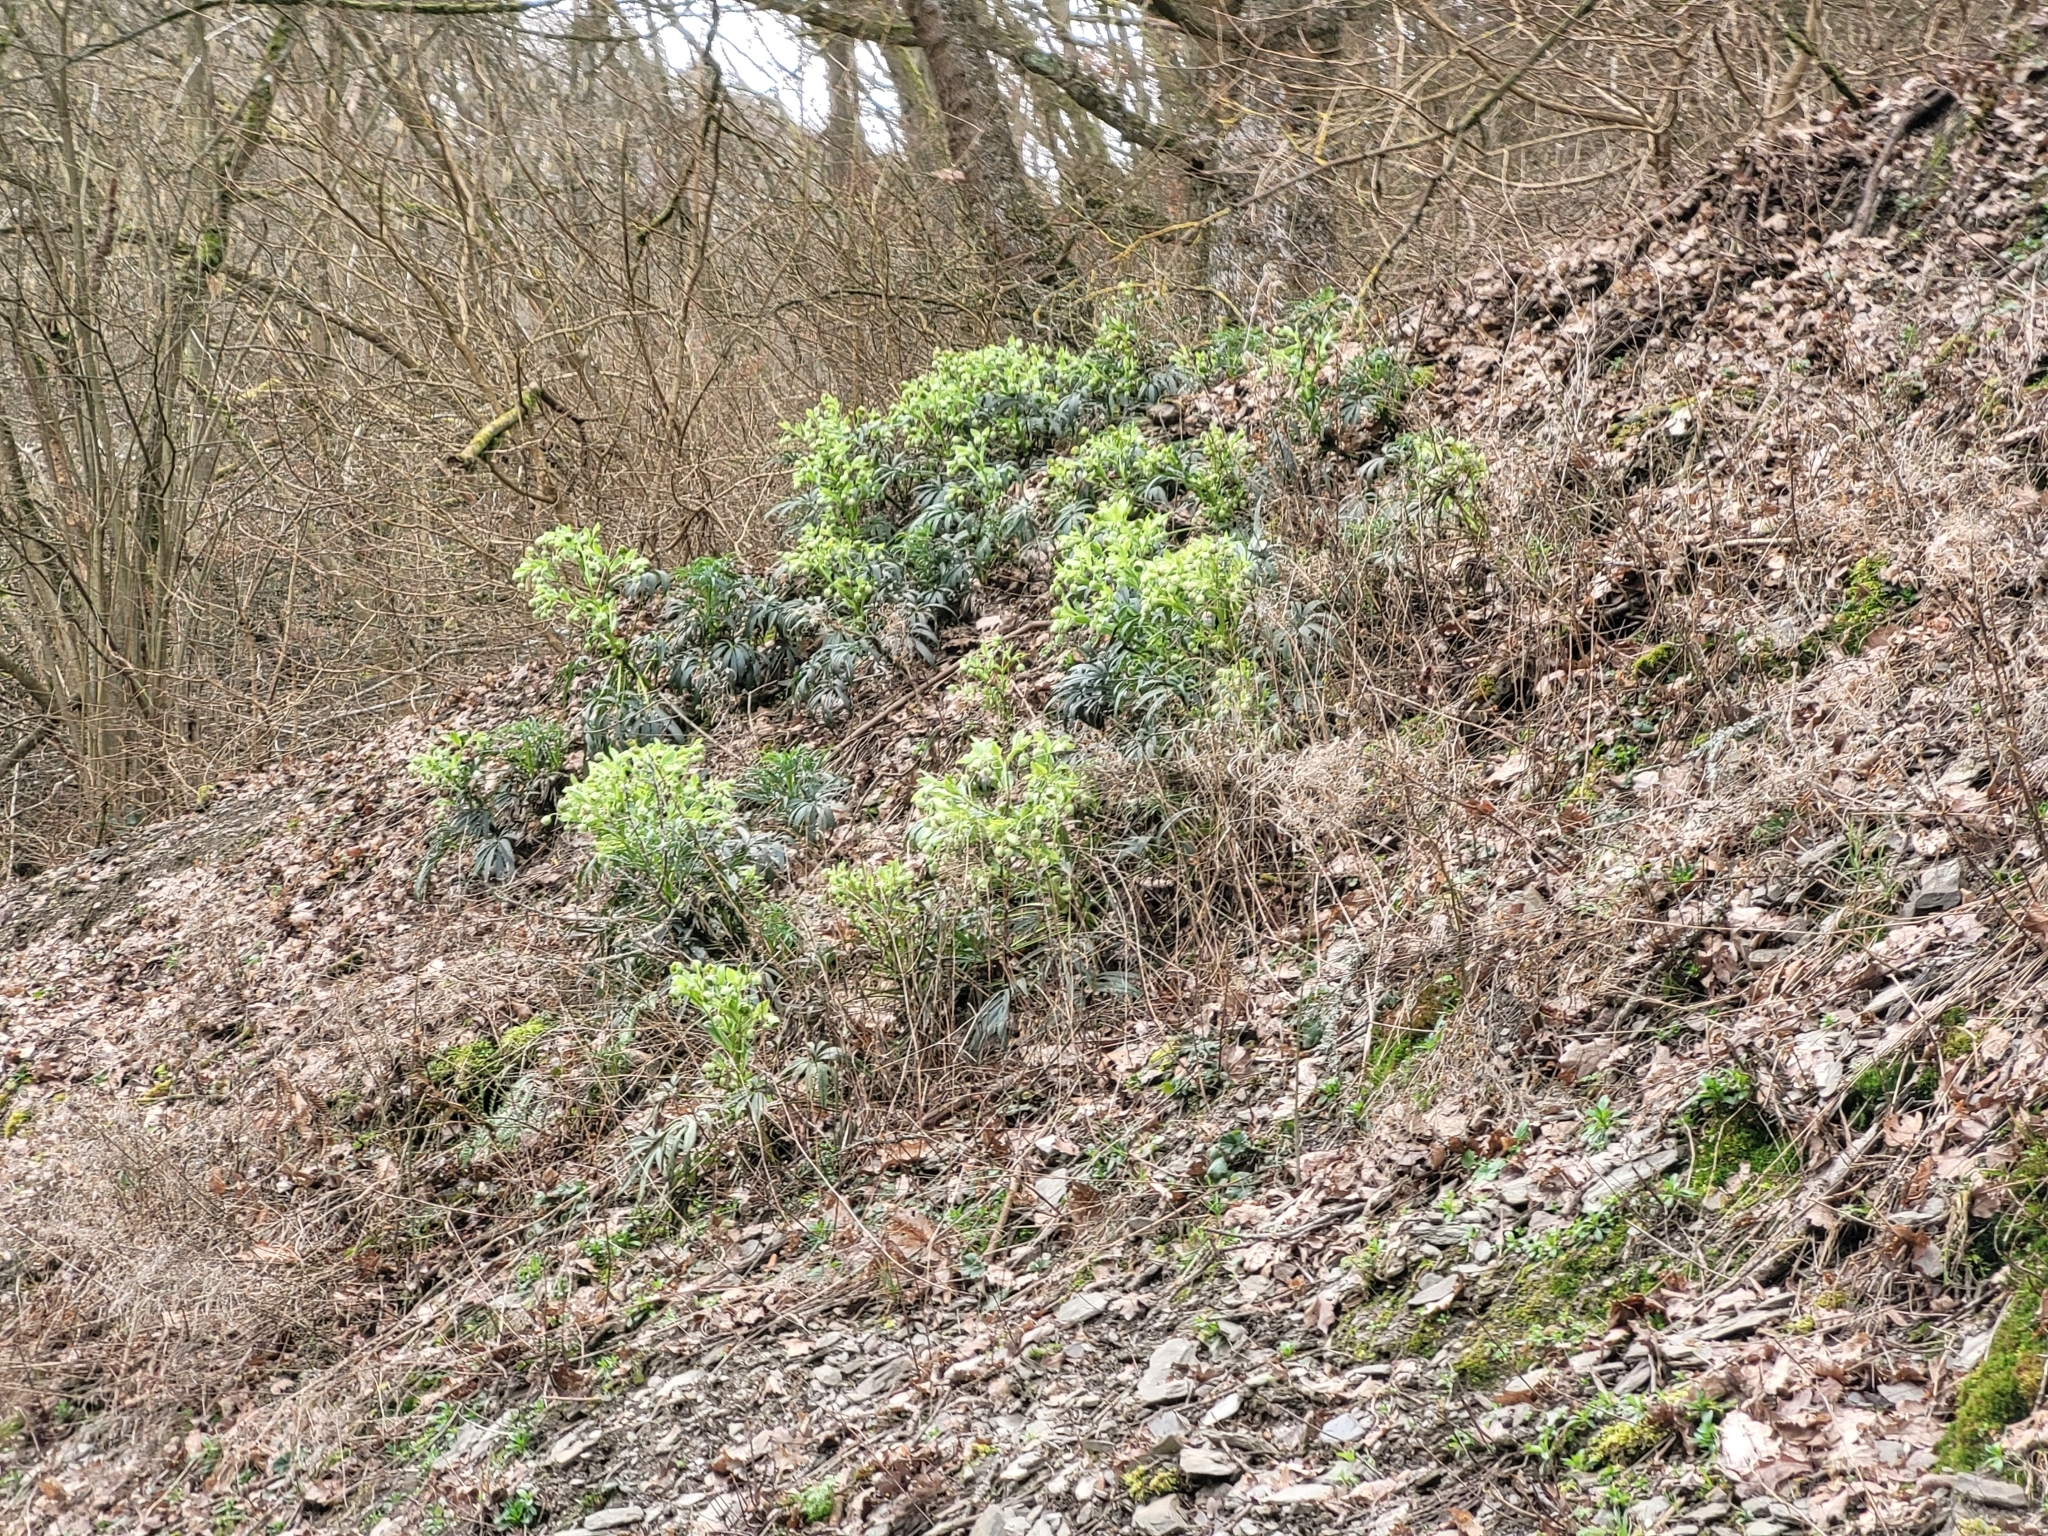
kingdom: Plantae
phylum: Tracheophyta
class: Magnoliopsida
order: Ranunculales
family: Ranunculaceae
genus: Helleborus
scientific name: Helleborus foetidus
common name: Stinking hellebore
